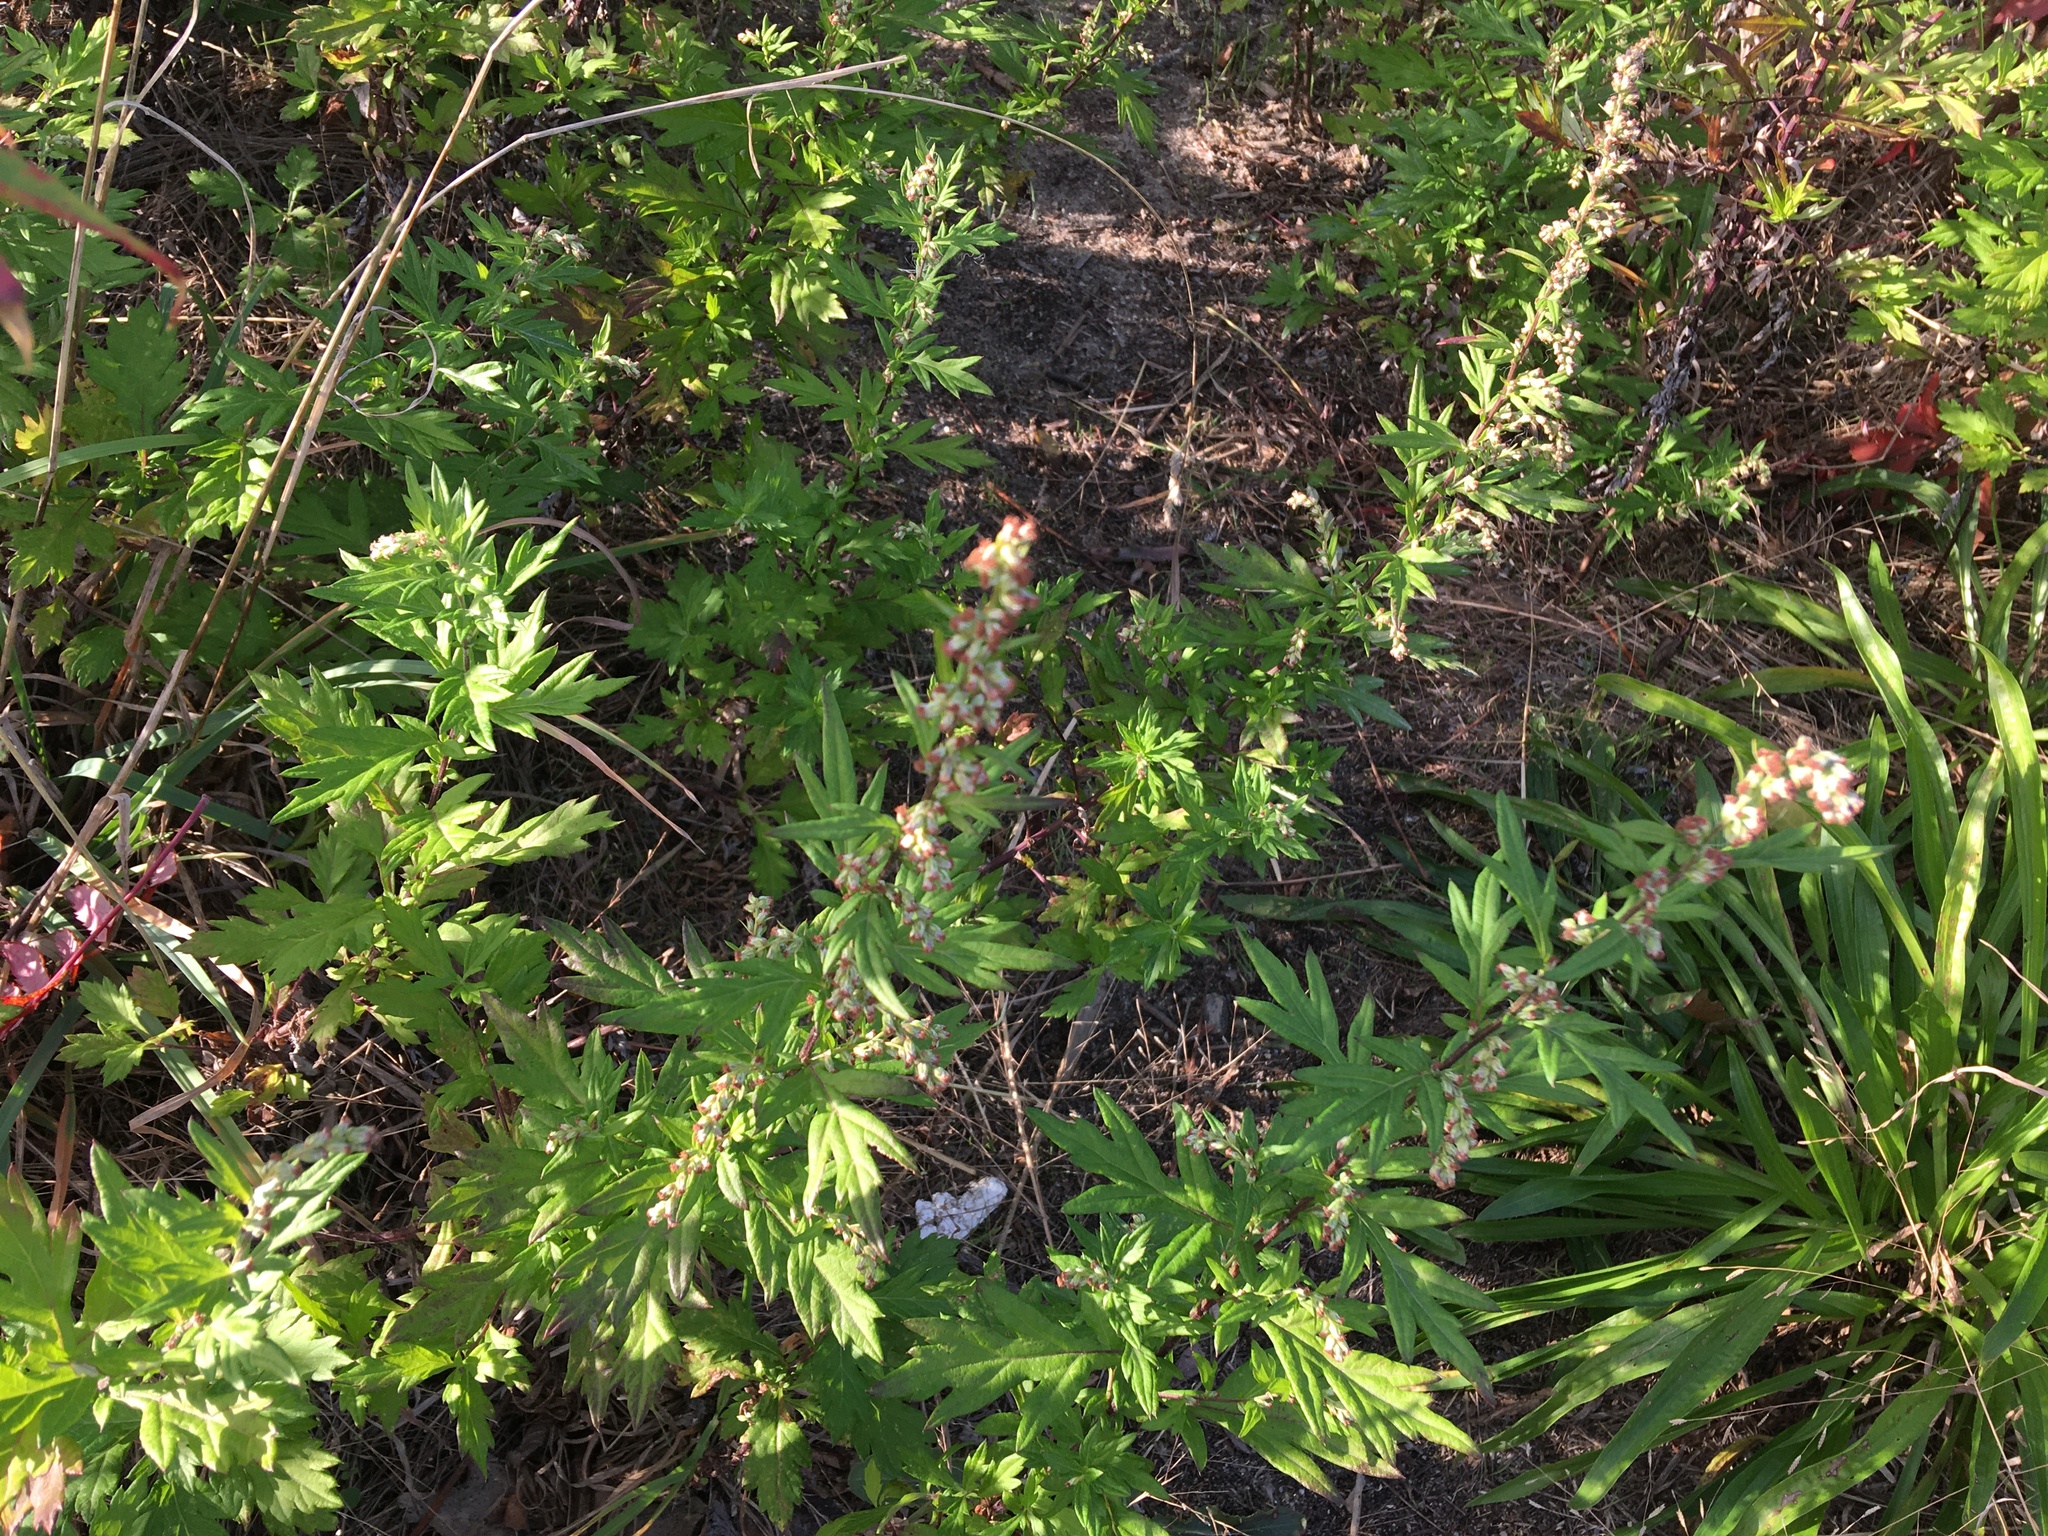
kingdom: Plantae
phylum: Tracheophyta
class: Magnoliopsida
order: Asterales
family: Asteraceae
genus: Artemisia
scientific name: Artemisia vulgaris
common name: Mugwort
